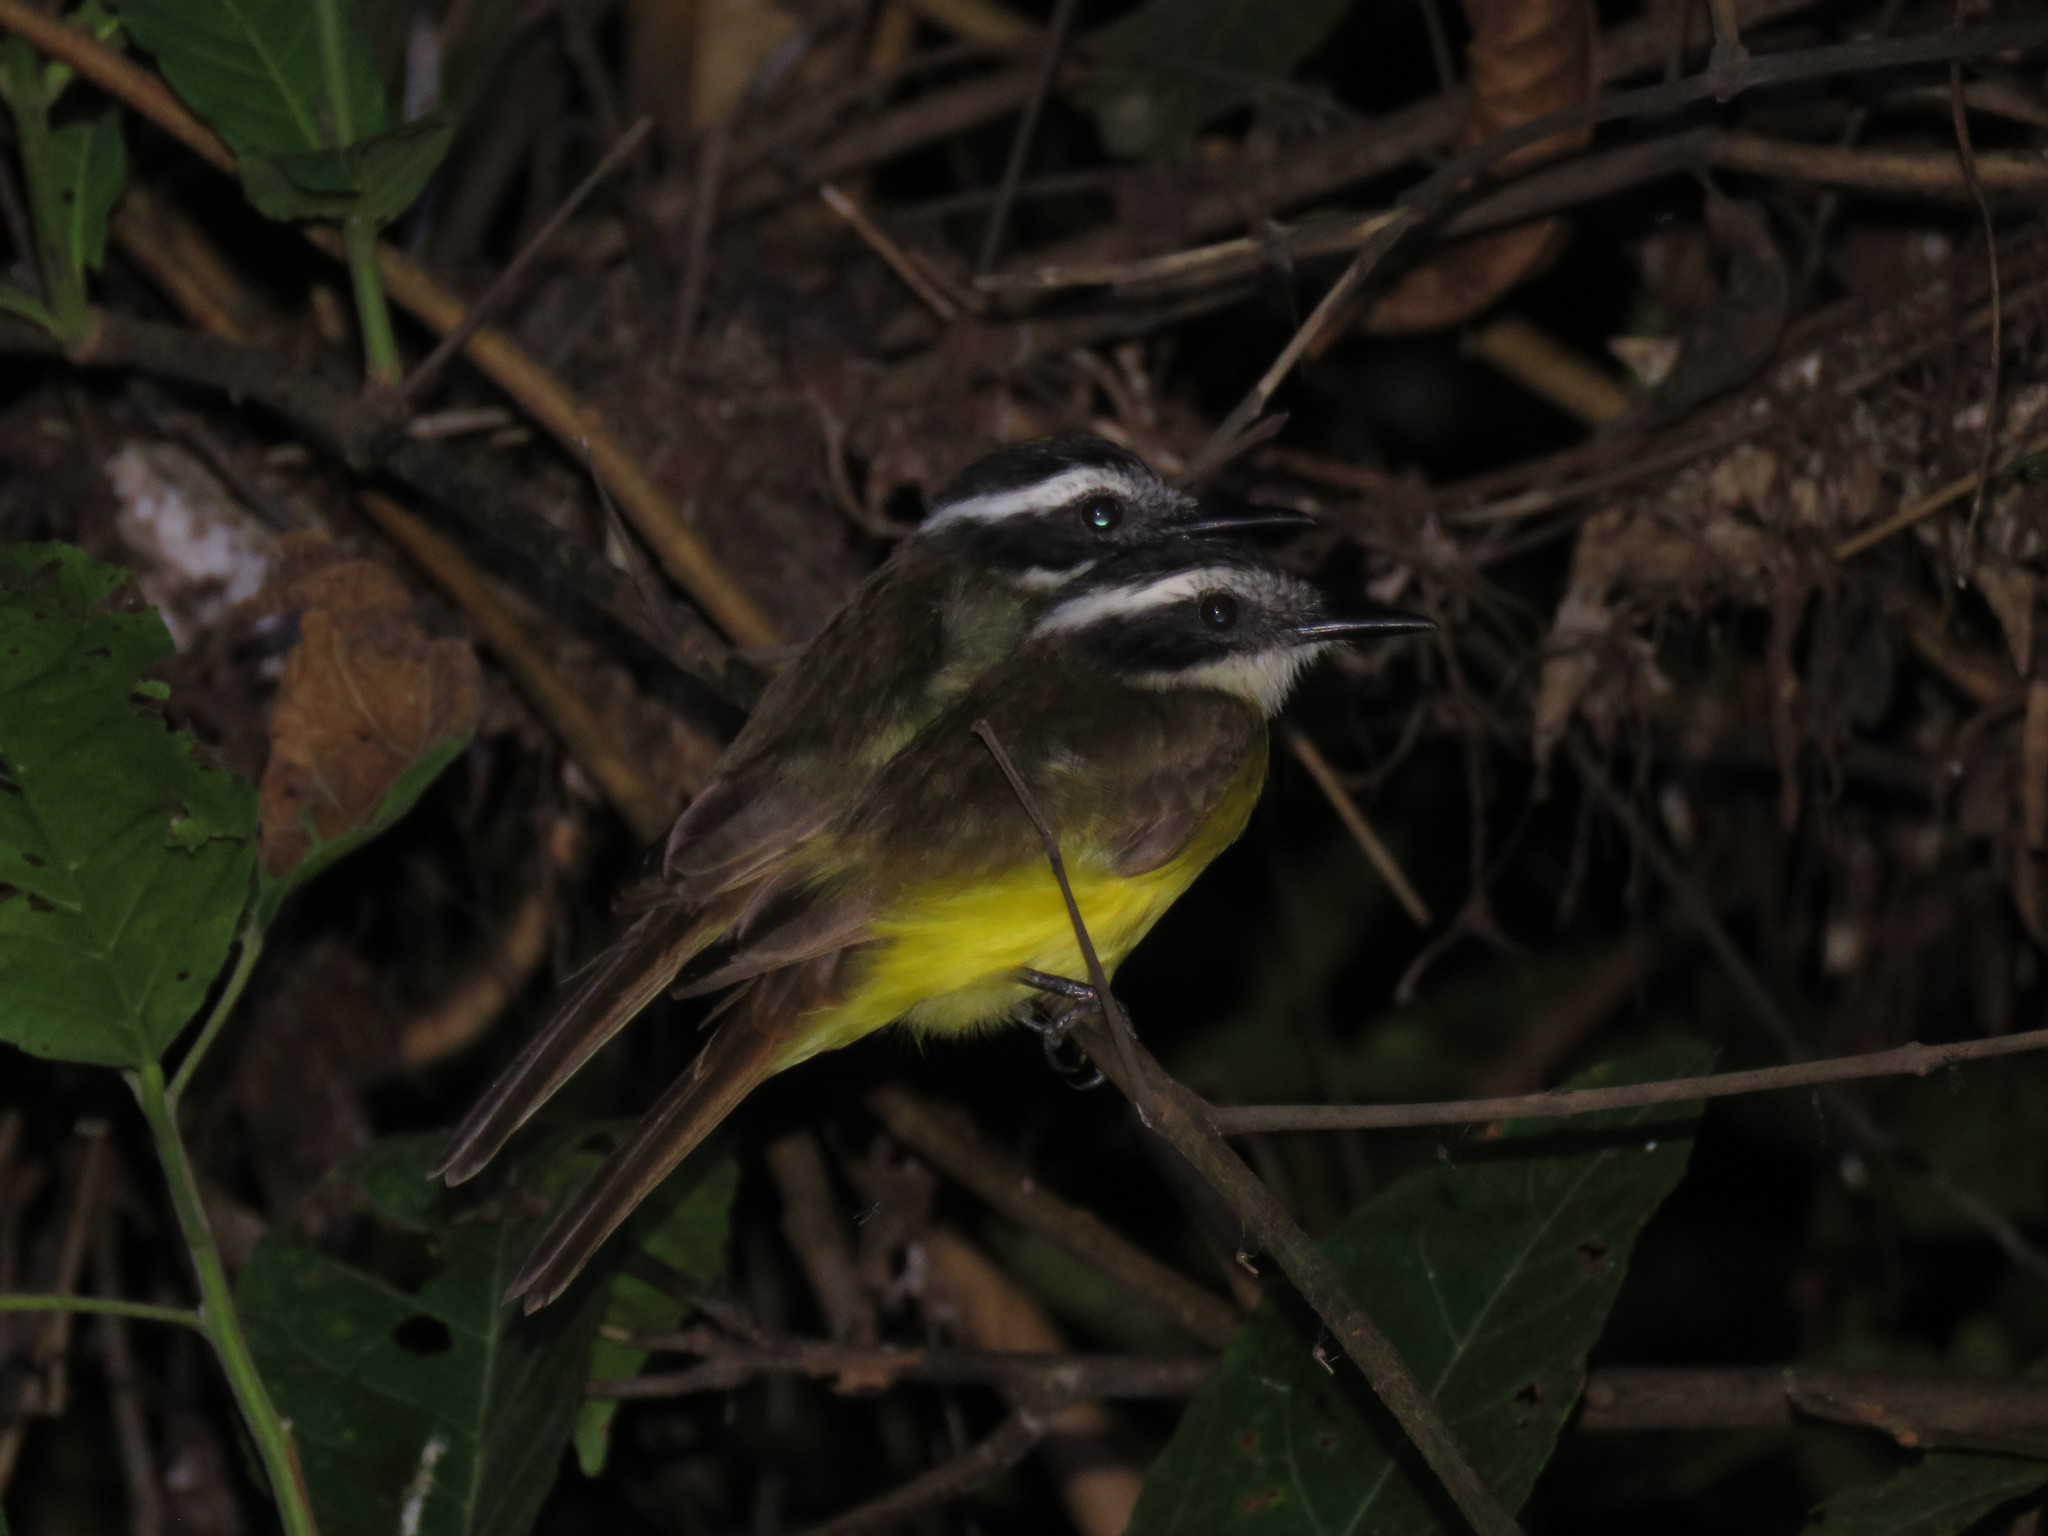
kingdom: Animalia
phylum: Chordata
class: Aves
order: Passeriformes
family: Tyrannidae
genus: Pitangus
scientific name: Pitangus lictor
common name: Lesser kiskadee
